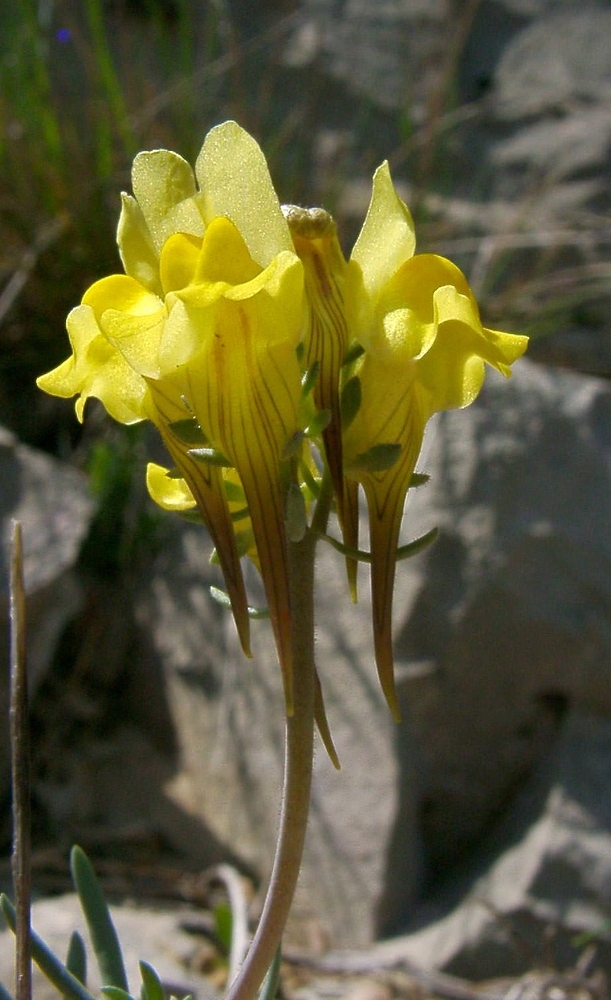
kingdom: Plantae
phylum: Tracheophyta
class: Magnoliopsida
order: Lamiales
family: Plantaginaceae
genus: Linaria
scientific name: Linaria supina
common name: Prostrate toadflax
